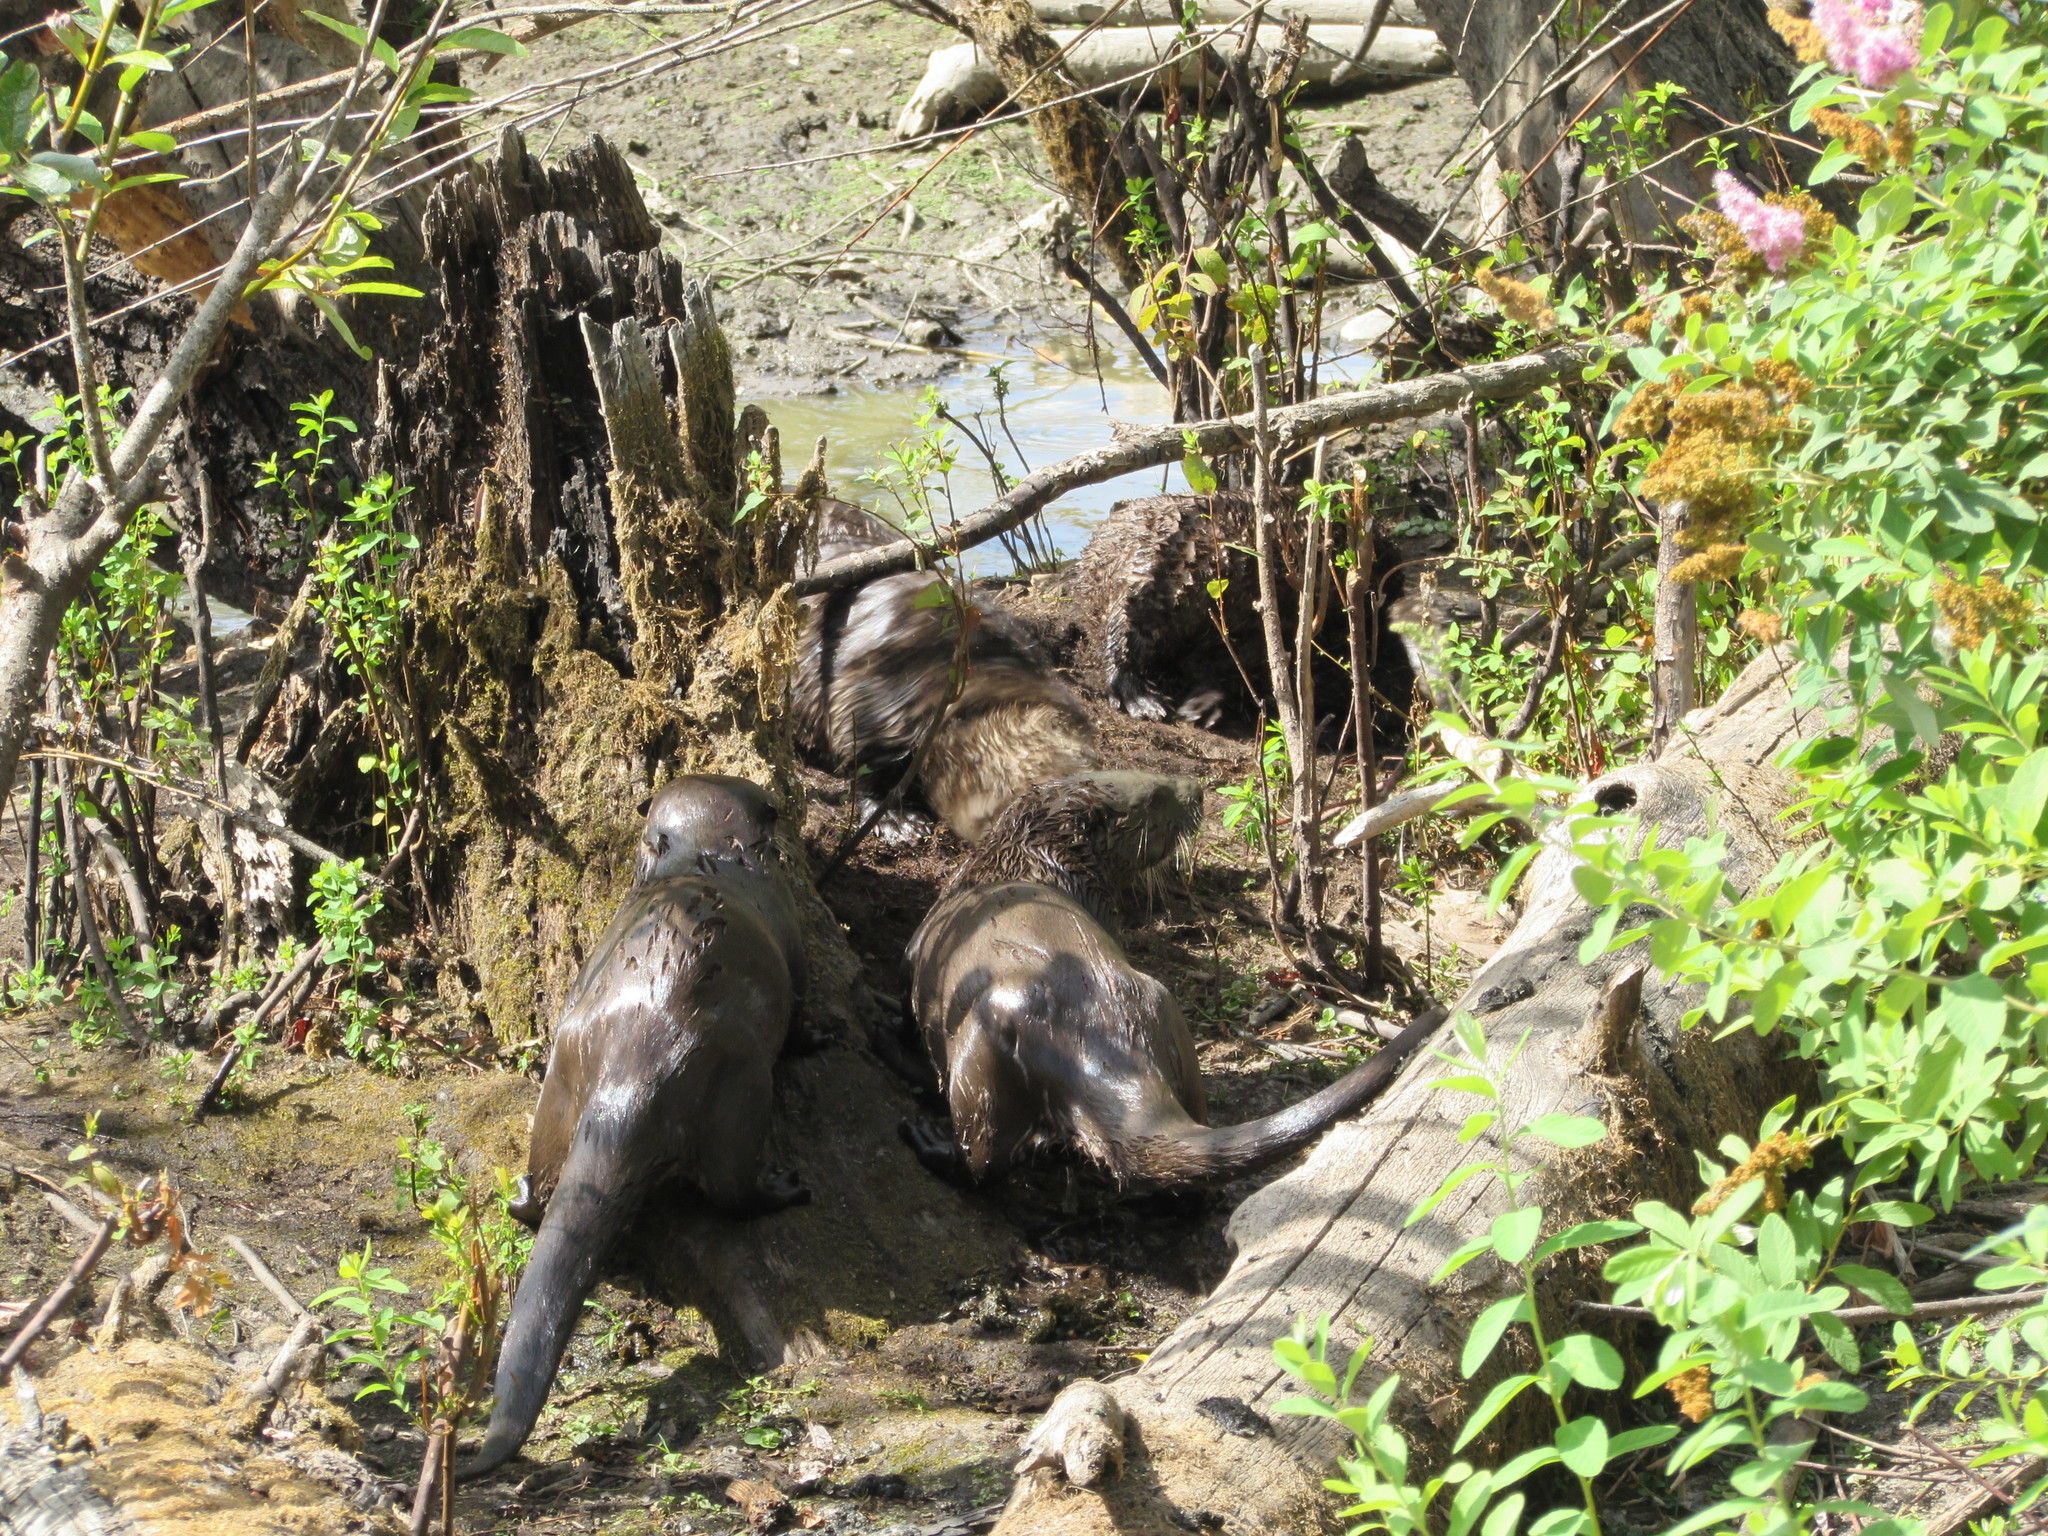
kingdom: Animalia
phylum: Chordata
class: Mammalia
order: Carnivora
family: Mustelidae
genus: Lontra
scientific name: Lontra canadensis
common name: North american river otter
